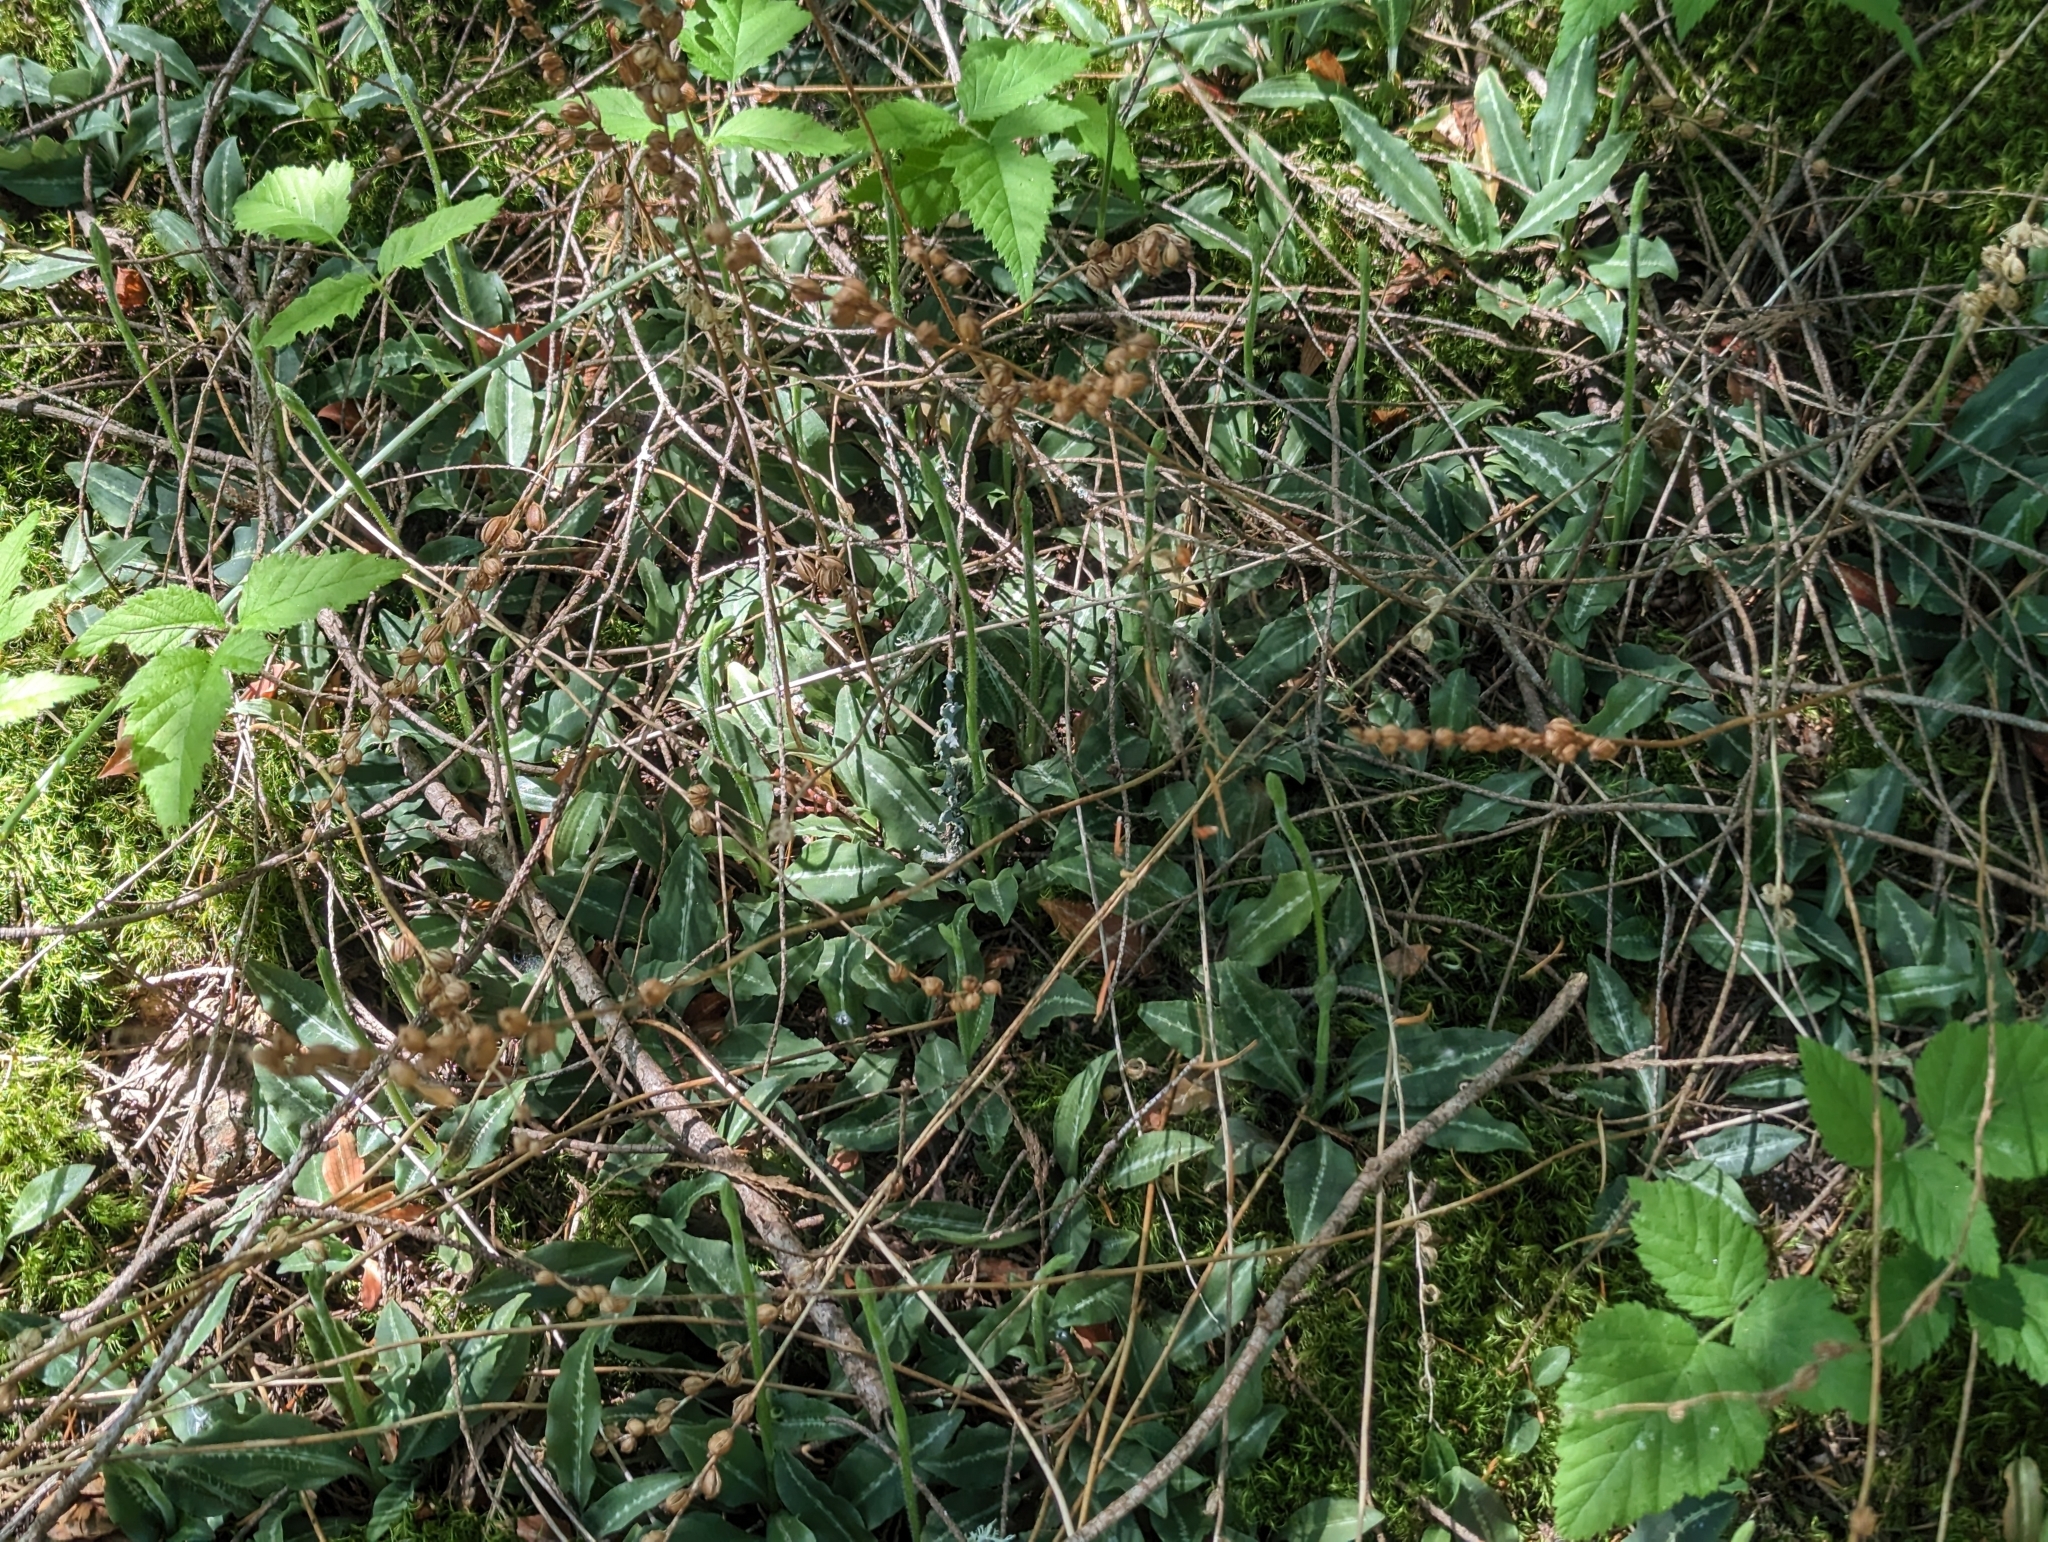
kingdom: Plantae
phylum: Tracheophyta
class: Liliopsida
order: Asparagales
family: Orchidaceae
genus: Goodyera
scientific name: Goodyera oblongifolia
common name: Giant rattlesnake-plantain
